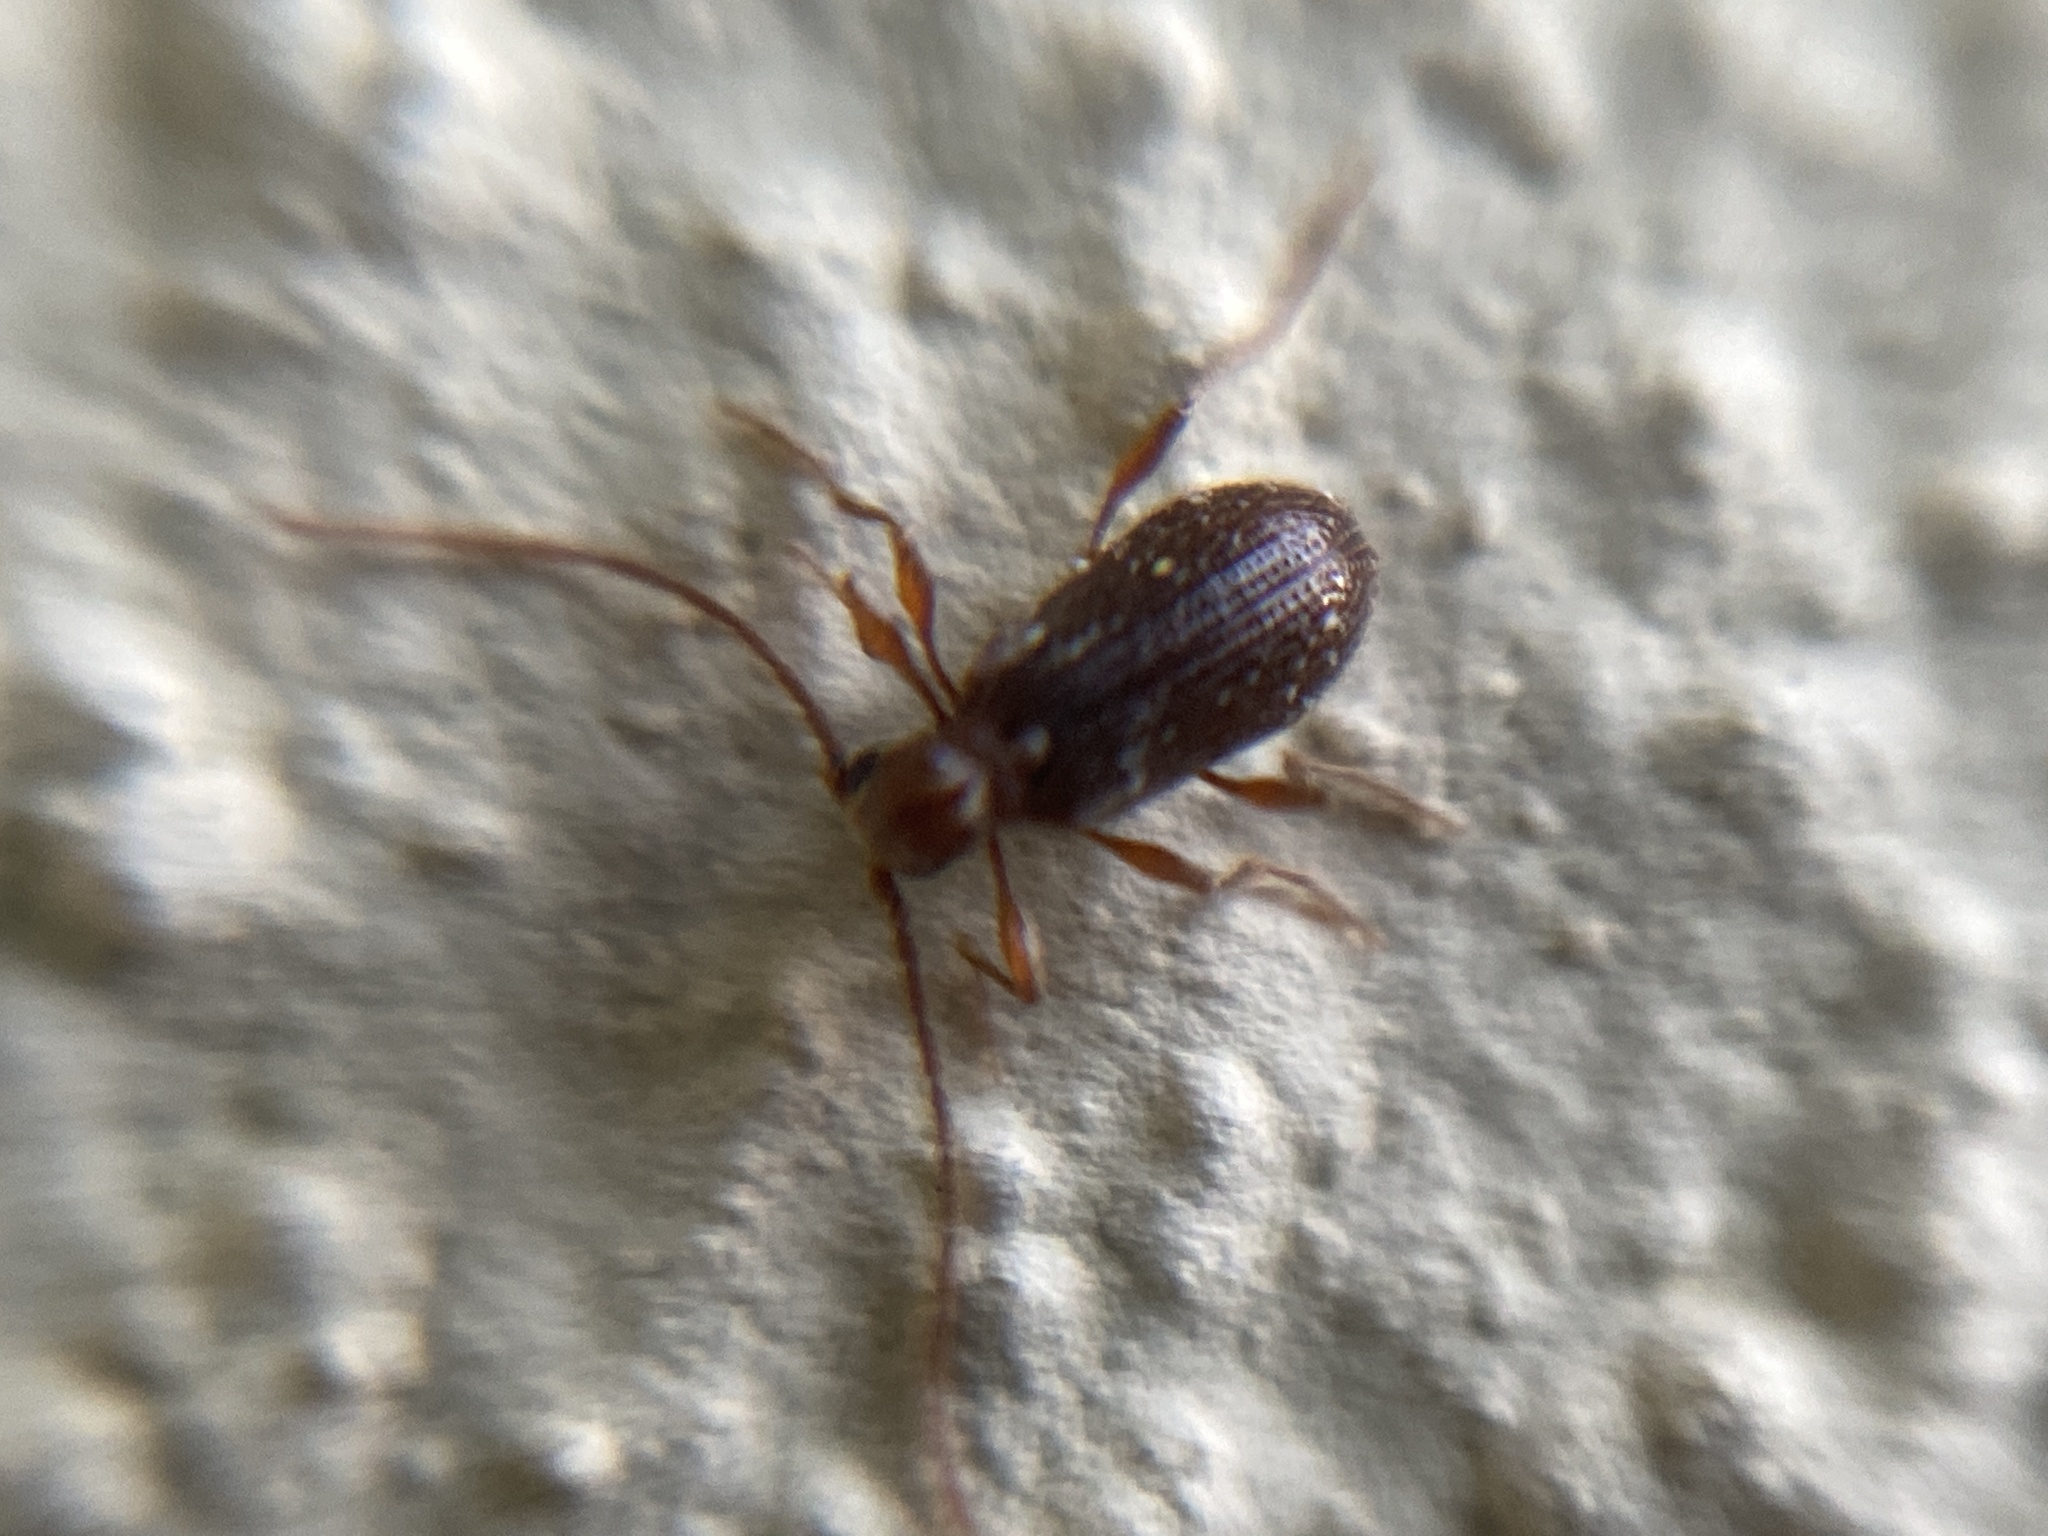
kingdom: Animalia
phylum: Arthropoda
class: Insecta
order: Coleoptera
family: Ptinidae
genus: Ptinus
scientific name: Ptinus fur
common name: White-marked spider beetle
